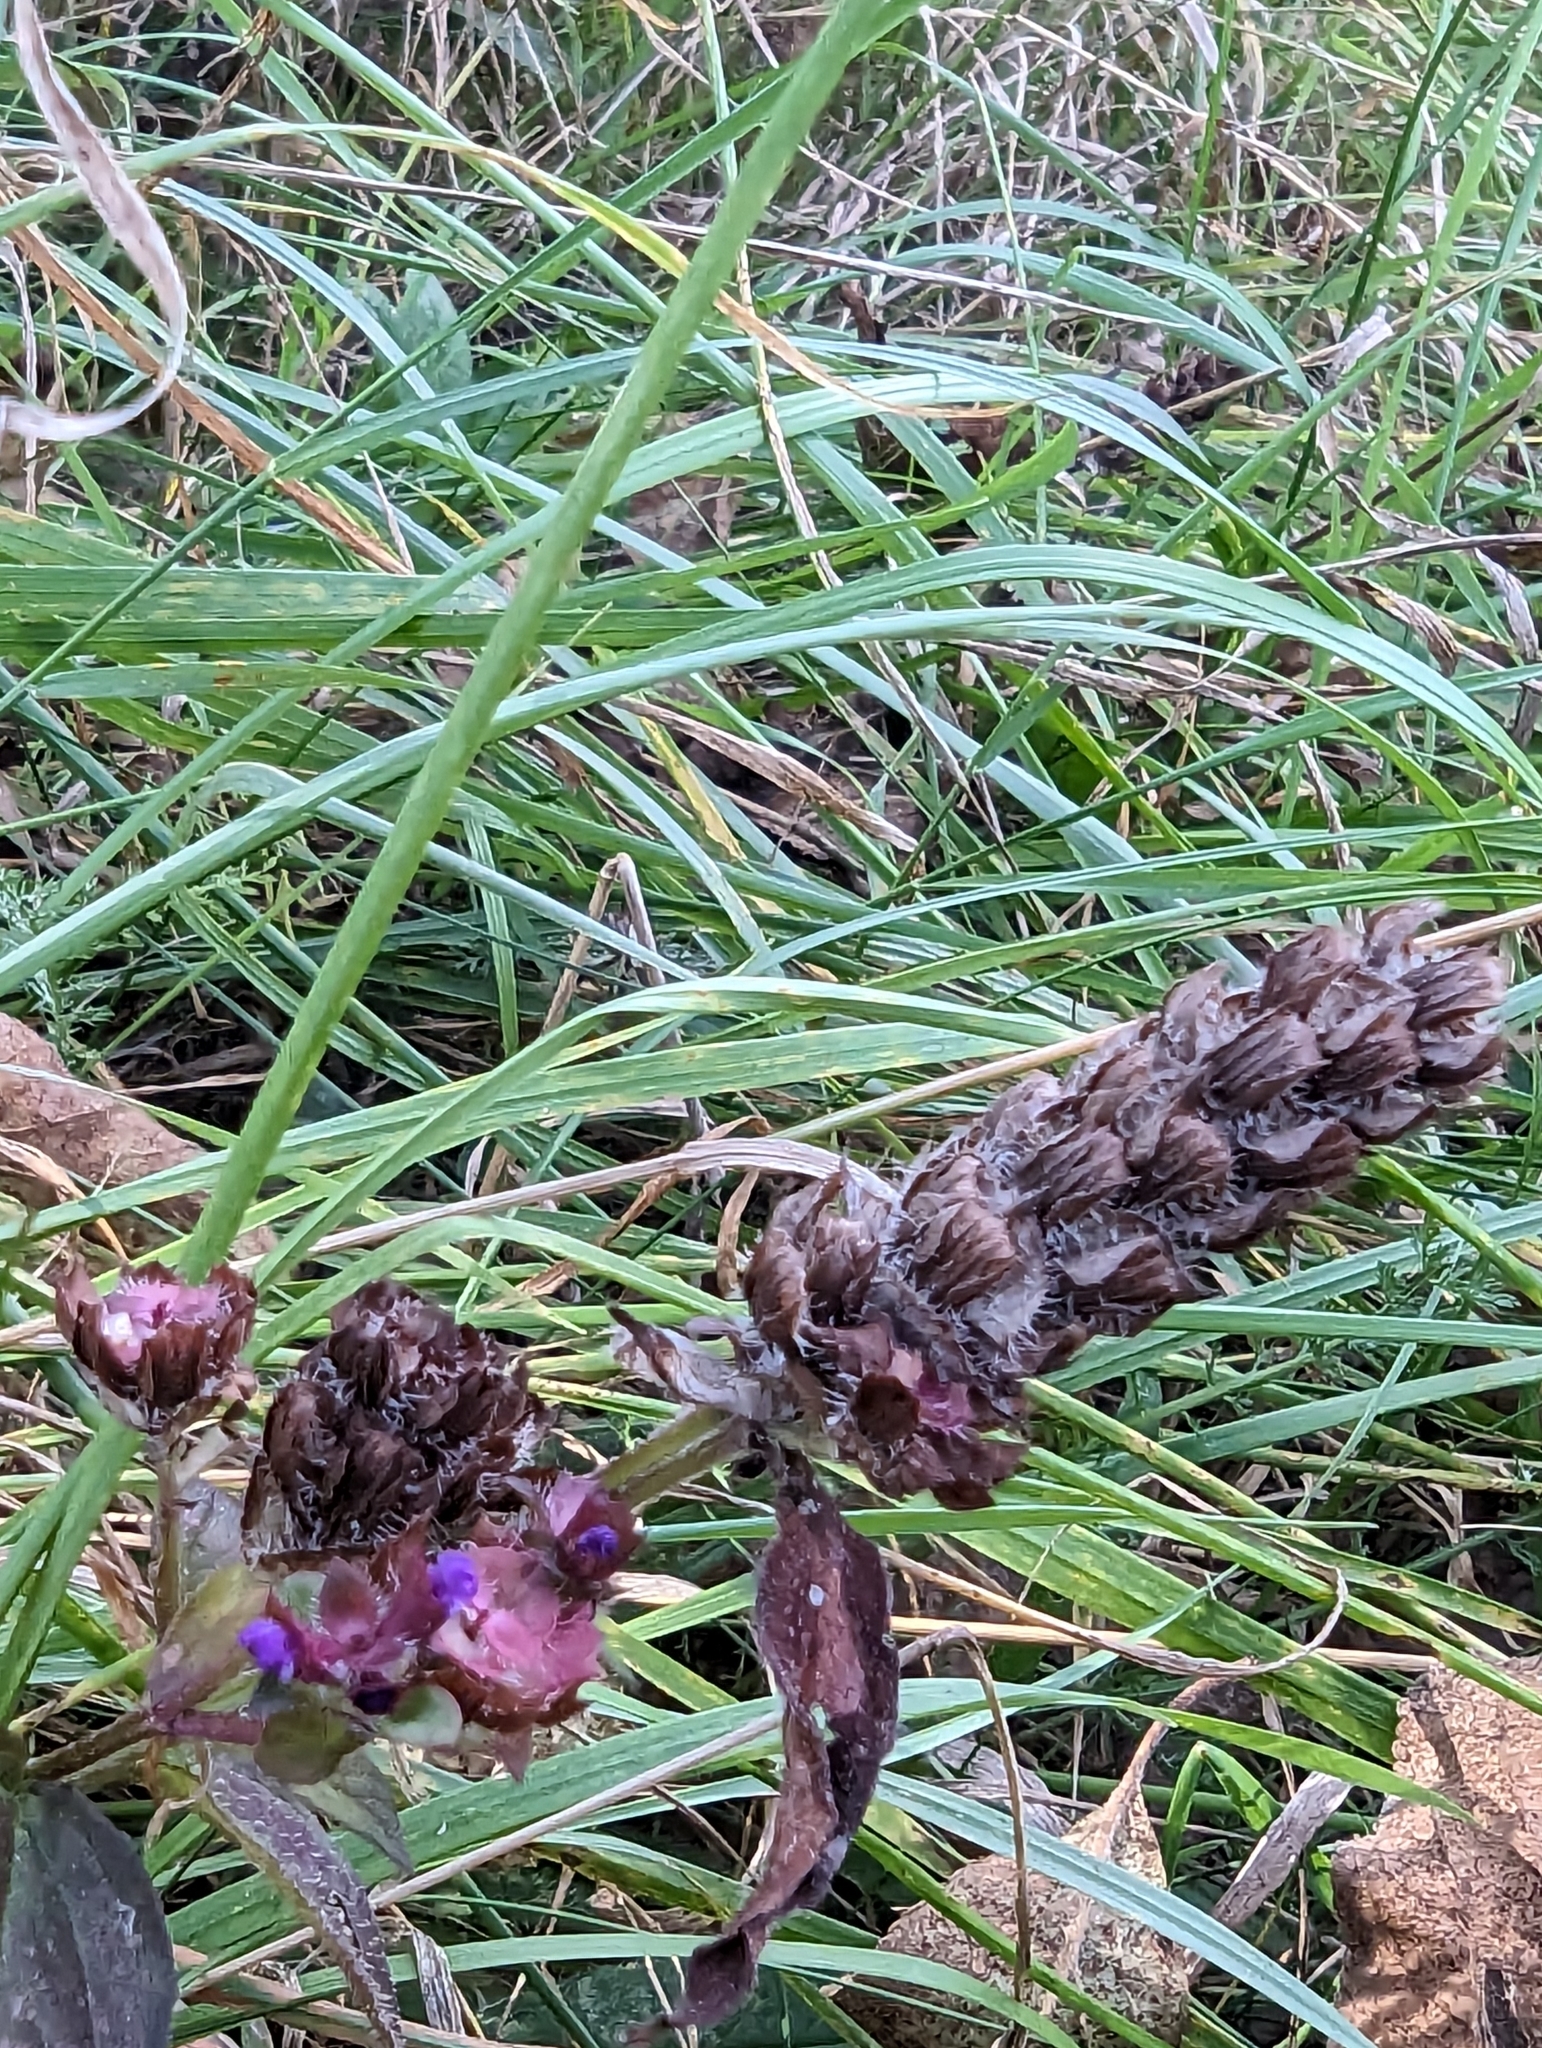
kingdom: Plantae
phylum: Tracheophyta
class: Magnoliopsida
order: Lamiales
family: Lamiaceae
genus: Prunella
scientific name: Prunella vulgaris
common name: Heal-all
